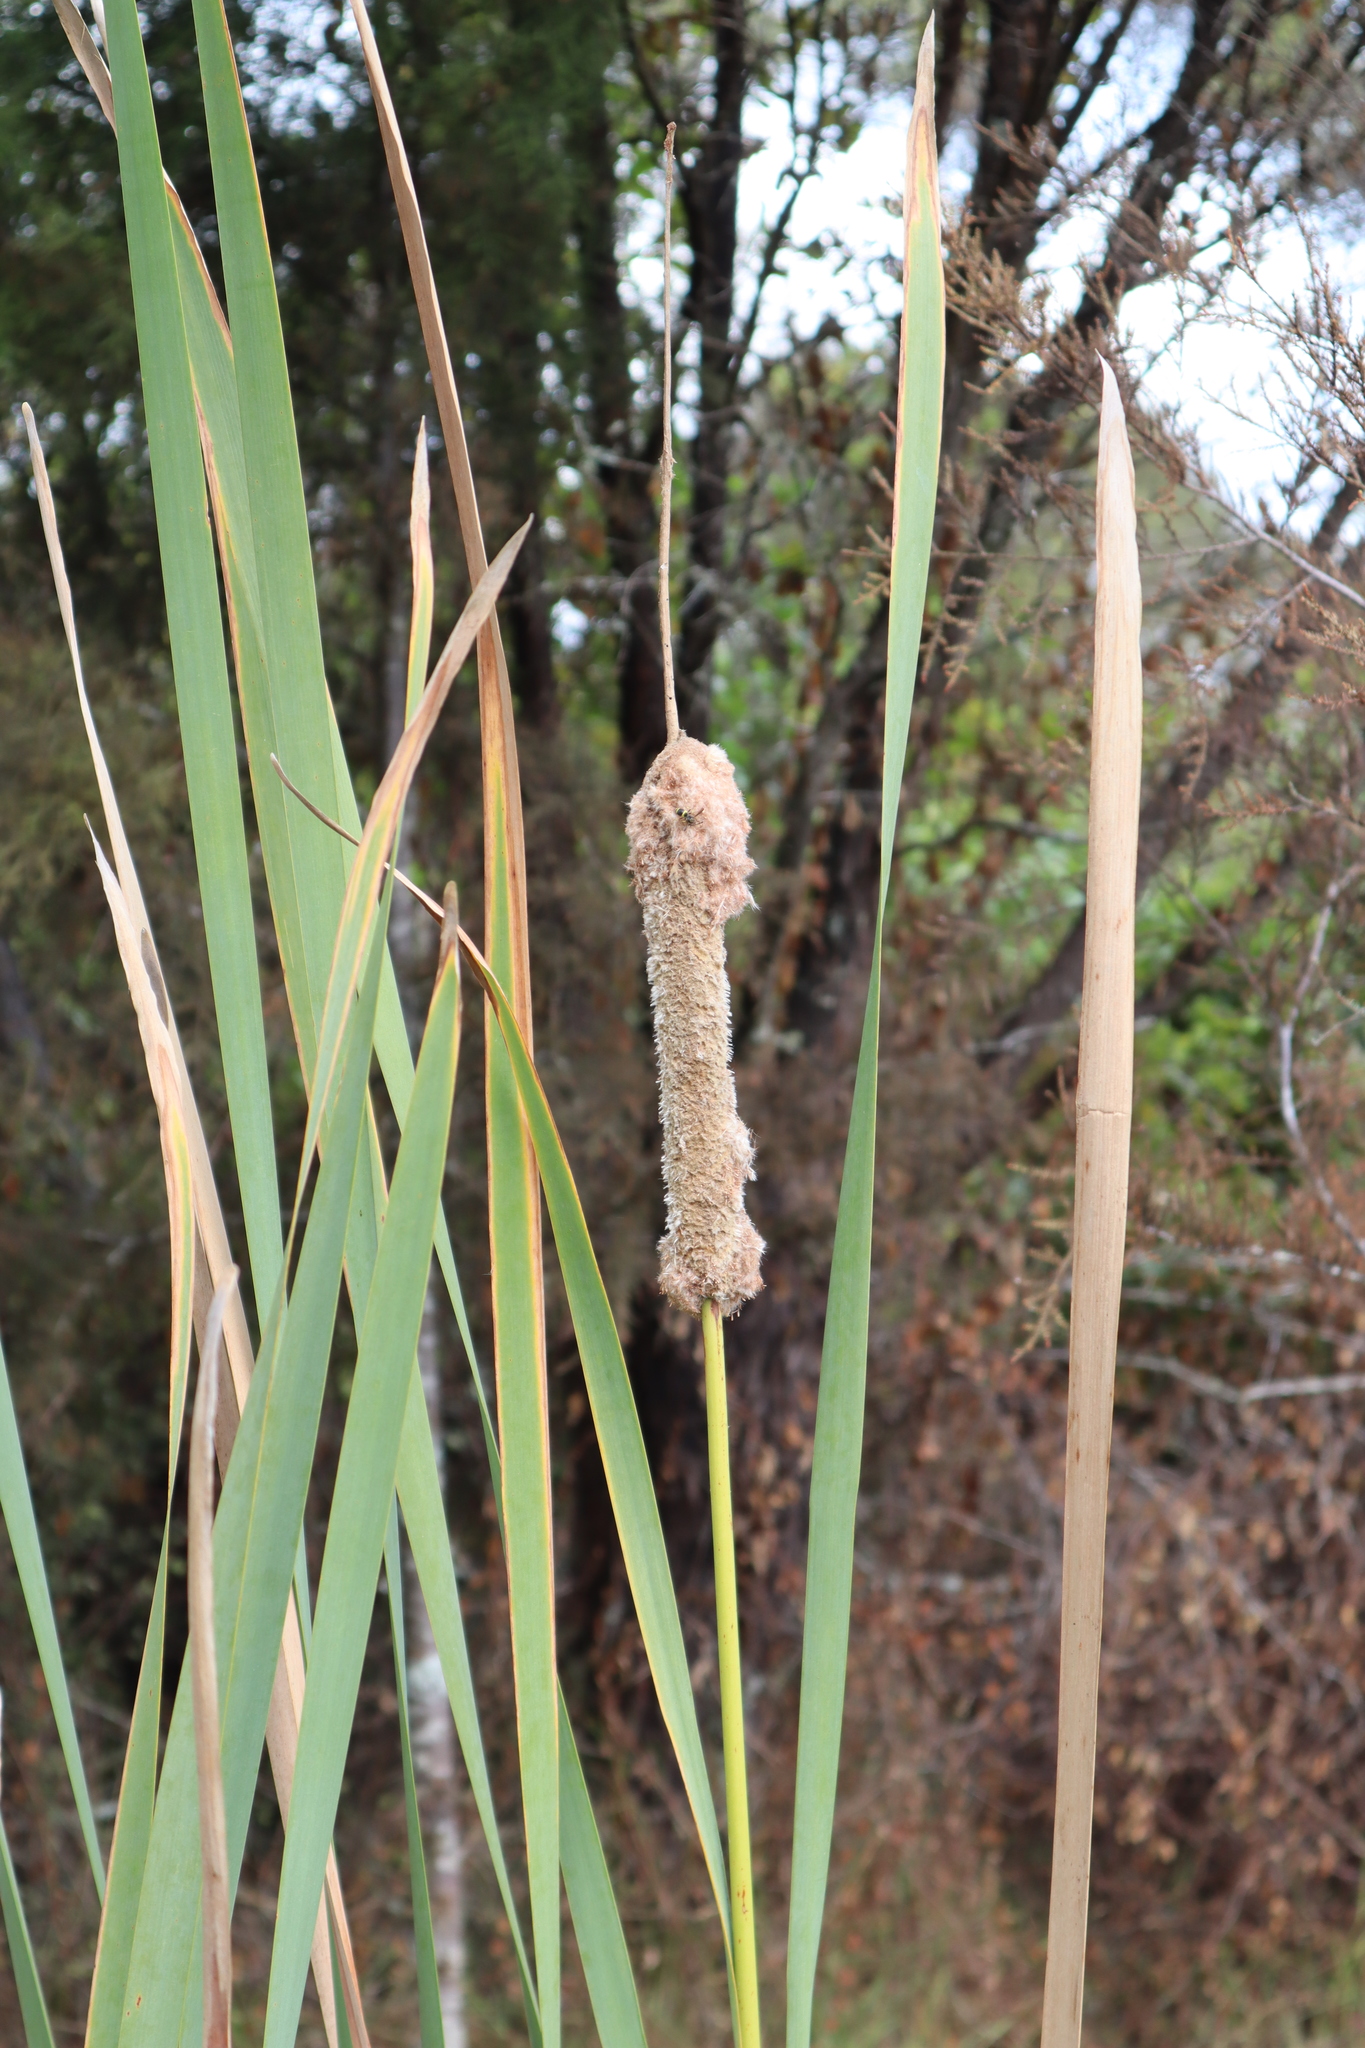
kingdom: Plantae
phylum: Tracheophyta
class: Liliopsida
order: Poales
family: Typhaceae
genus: Typha
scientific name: Typha orientalis
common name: Bullrush
